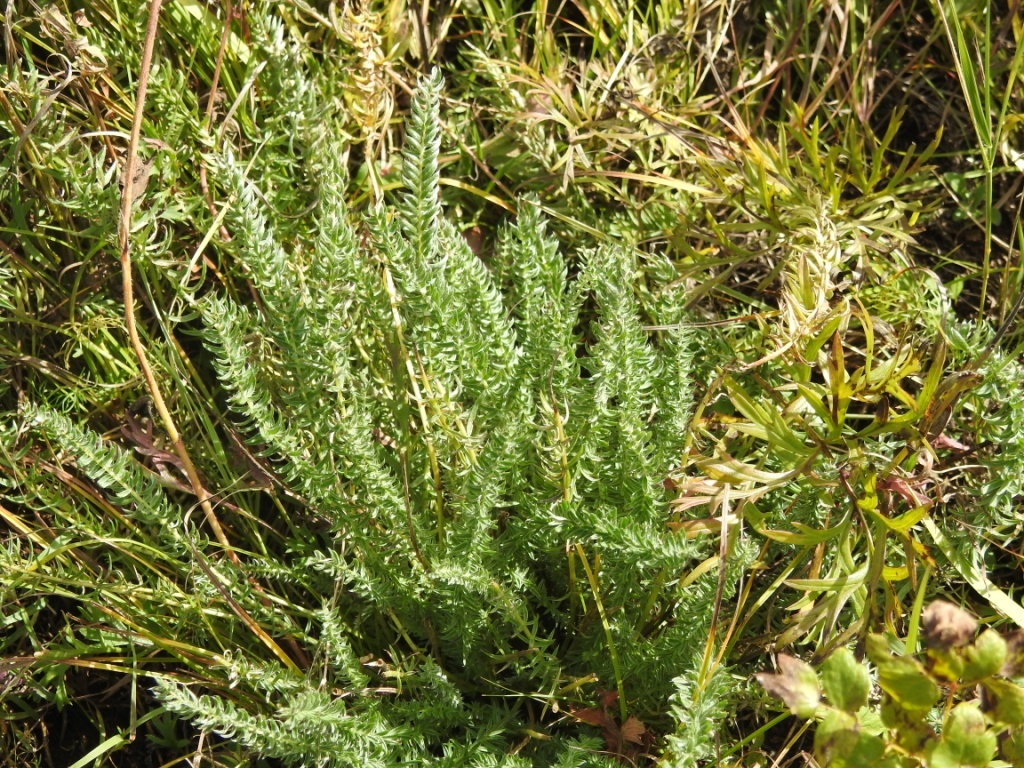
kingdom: Plantae
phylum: Tracheophyta
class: Magnoliopsida
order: Fabales
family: Fabaceae
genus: Oxytropis
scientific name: Oxytropis myriophylla
